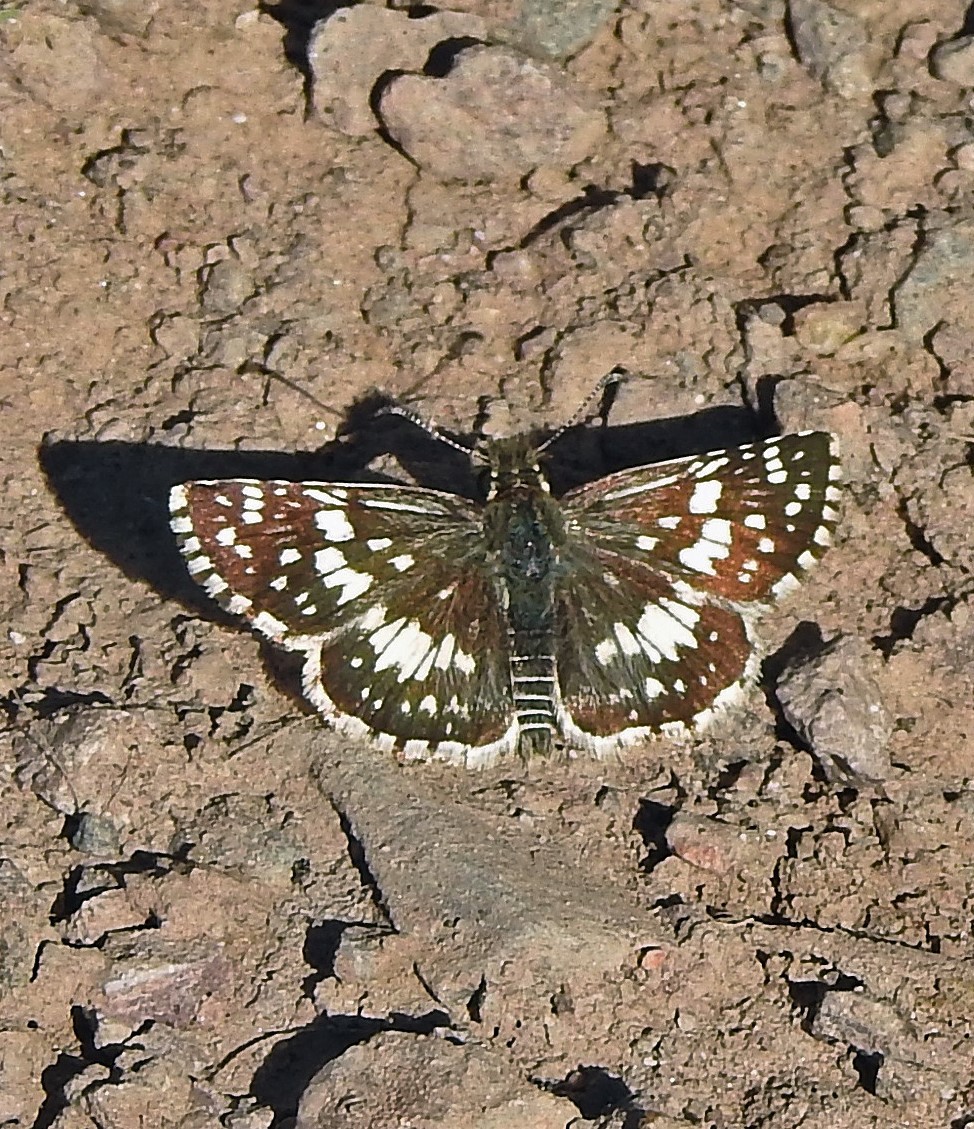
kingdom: Animalia
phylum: Arthropoda
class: Insecta
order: Lepidoptera
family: Hesperiidae
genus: Burnsius
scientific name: Burnsius orcynoides
